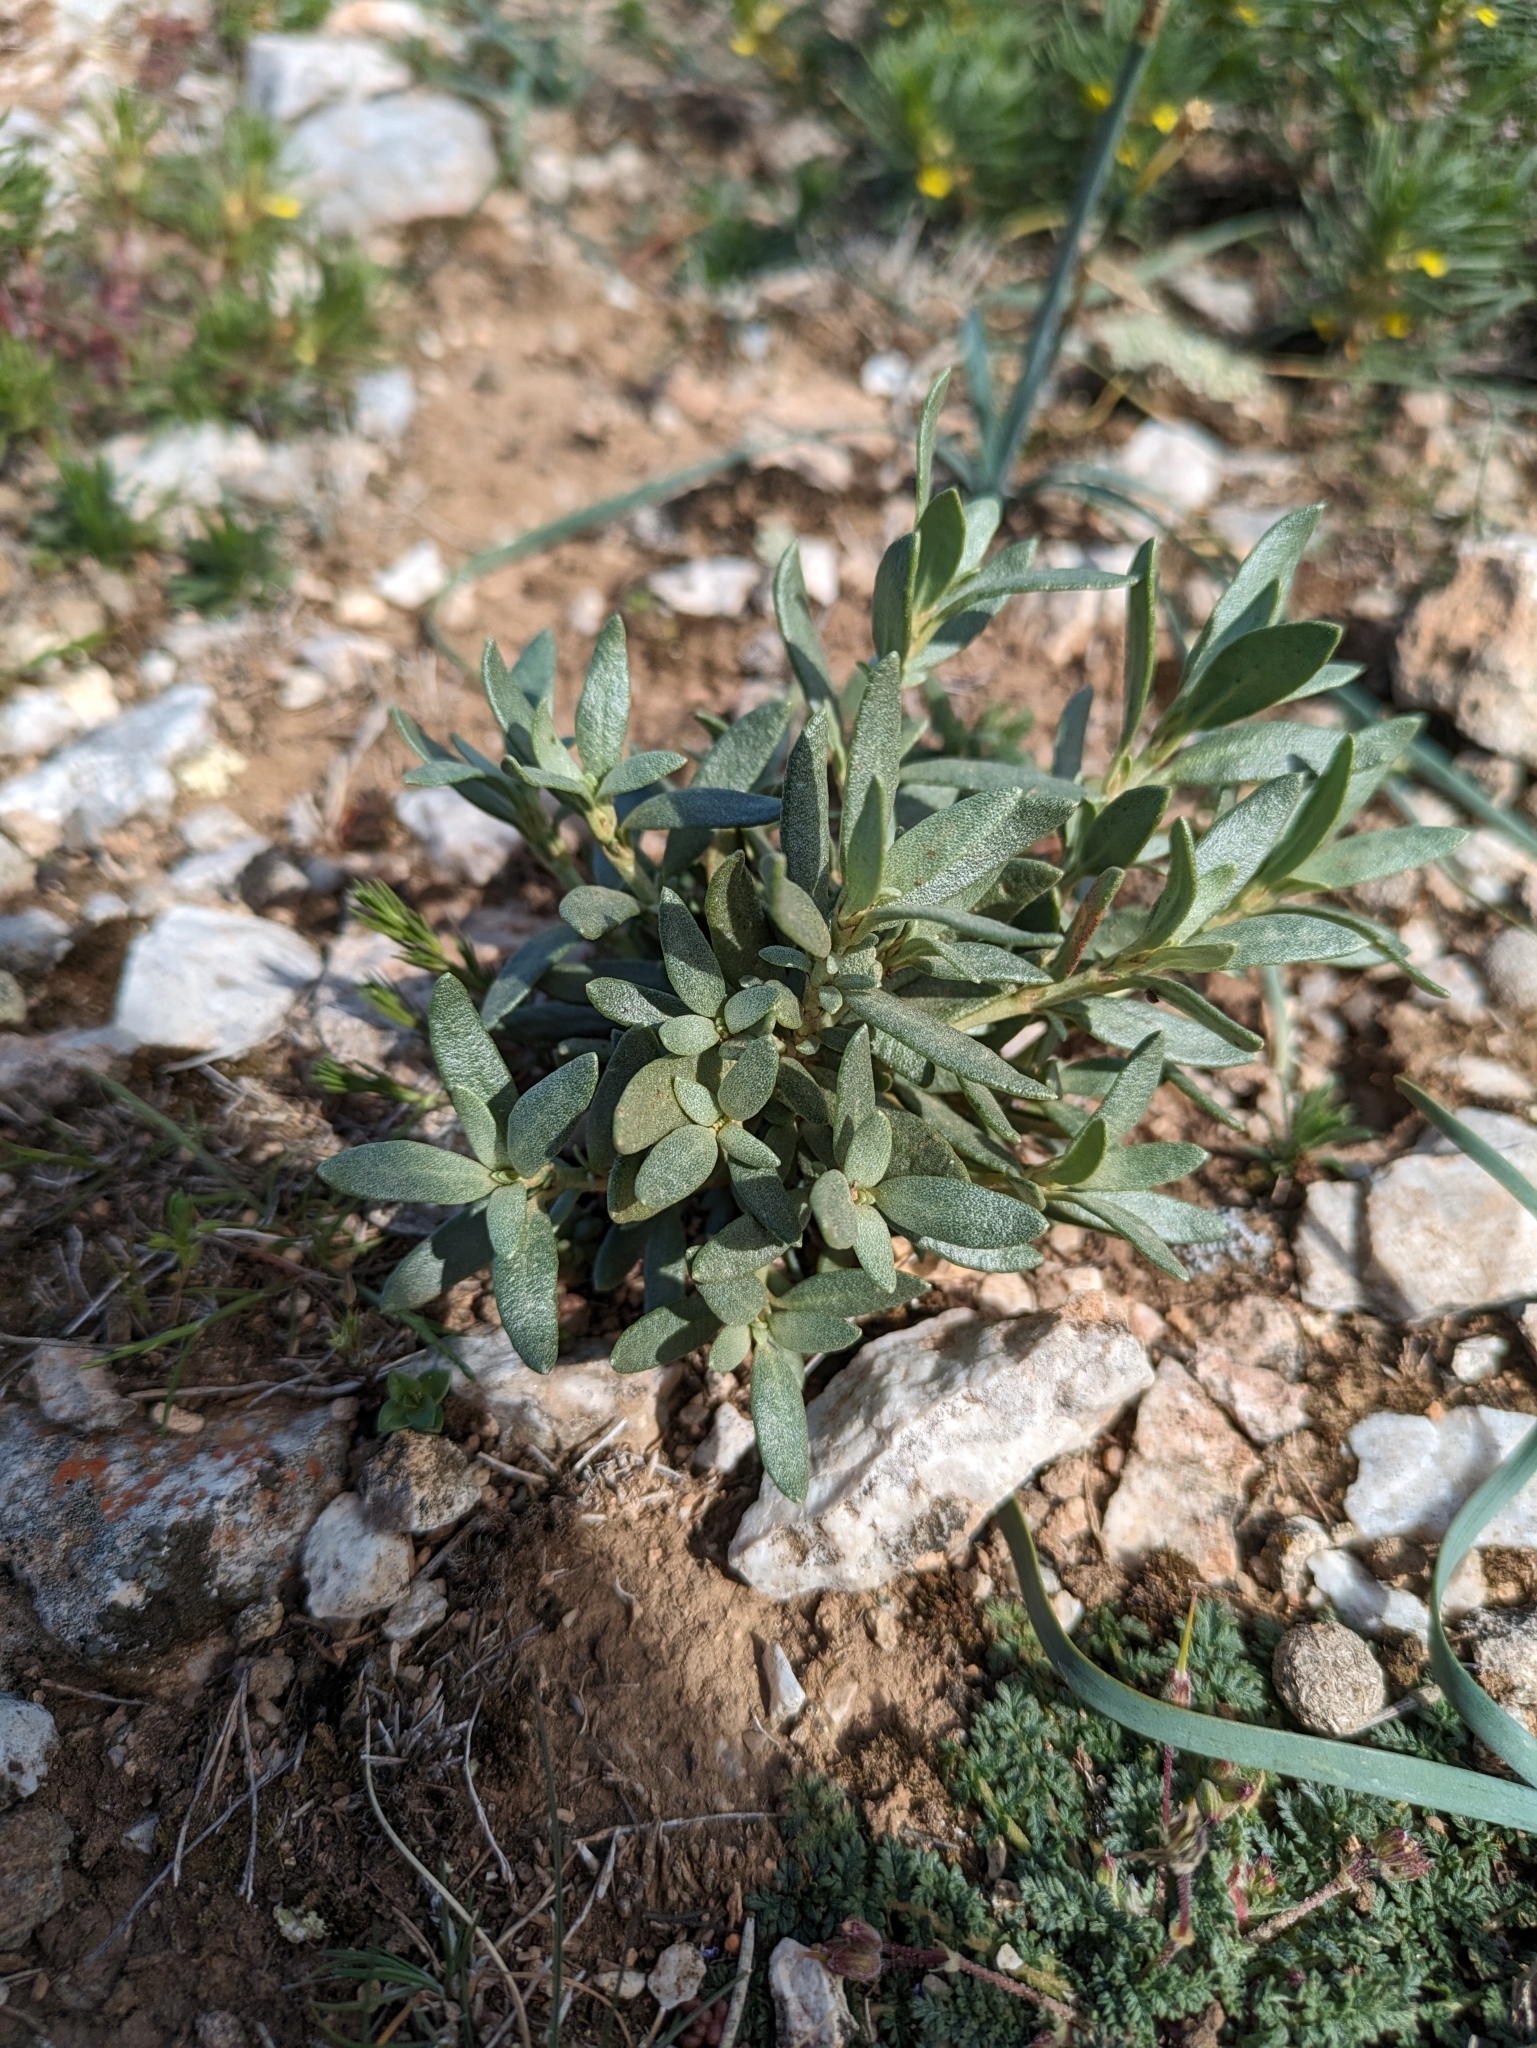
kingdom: Plantae
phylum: Tracheophyta
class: Magnoliopsida
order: Malvales
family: Cistaceae
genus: Helianthemum
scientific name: Helianthemum squamatum
